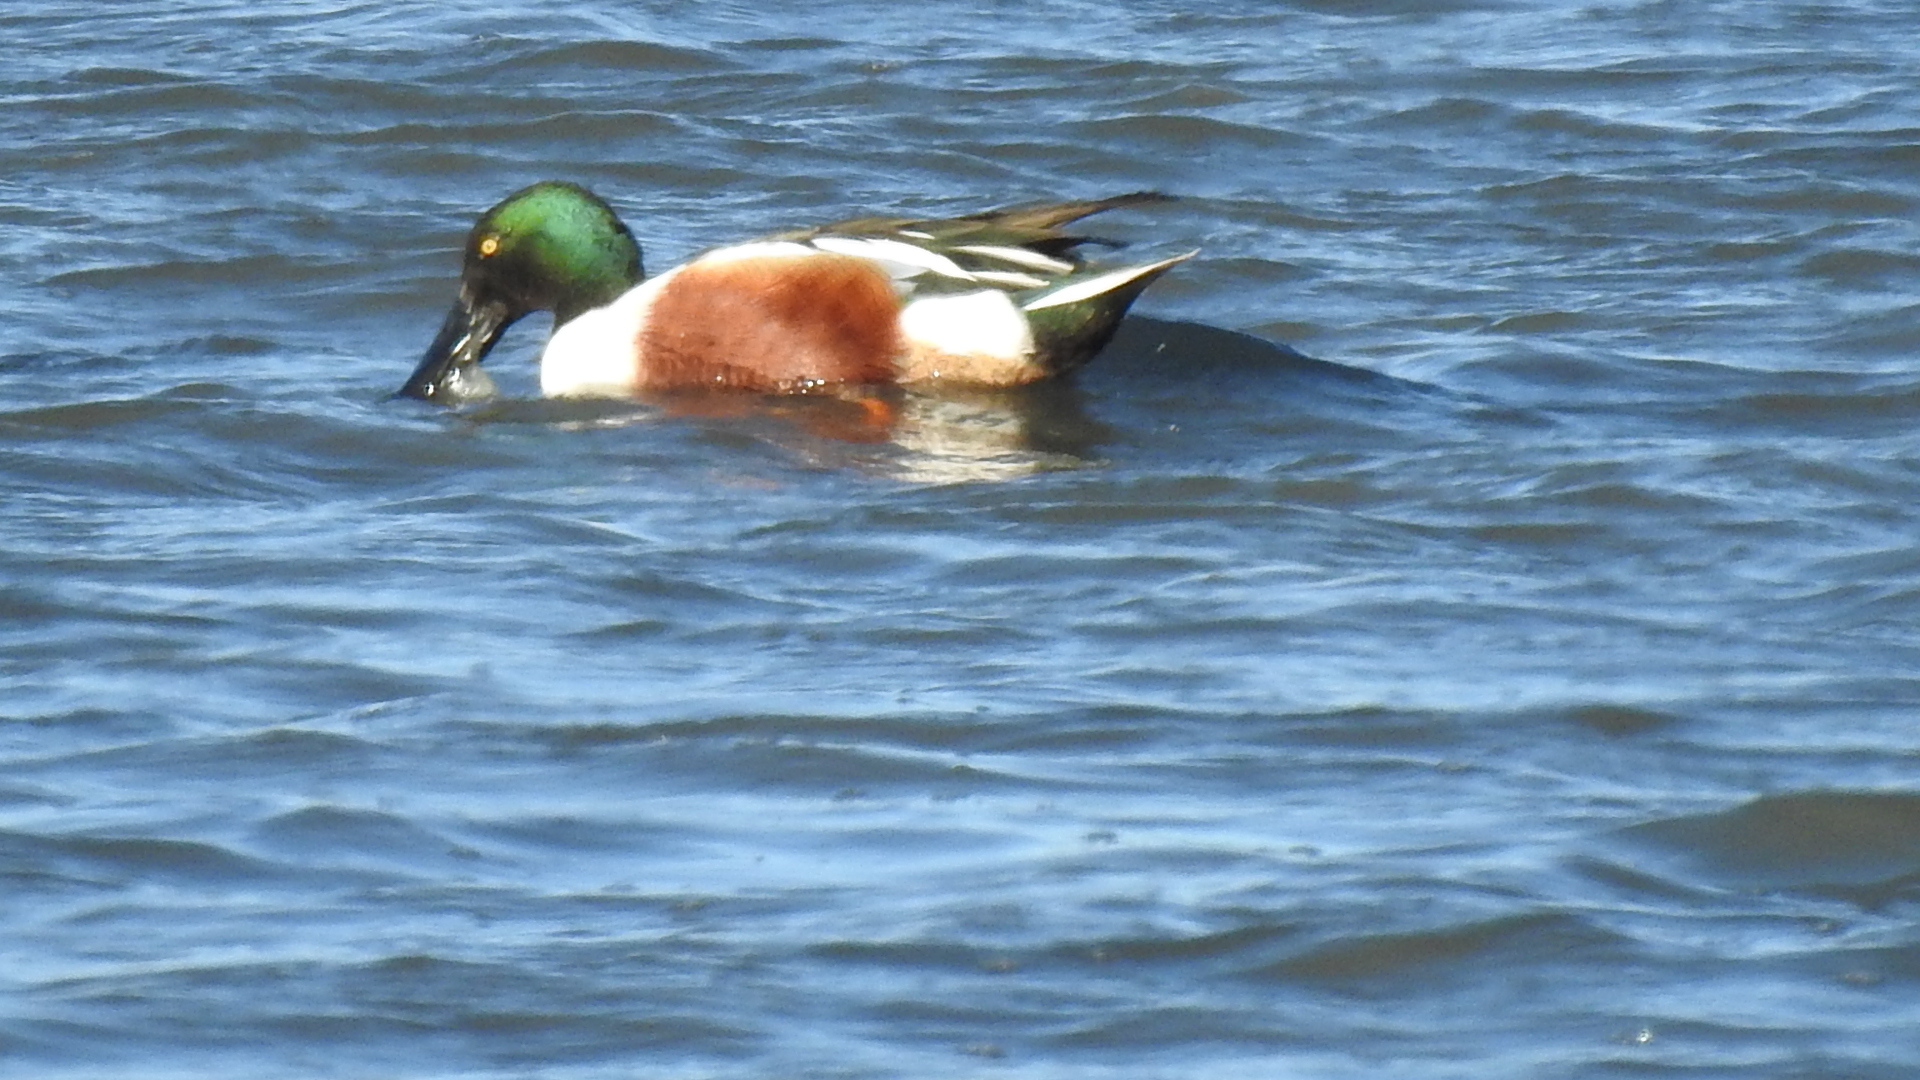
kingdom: Animalia
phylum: Chordata
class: Aves
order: Anseriformes
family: Anatidae
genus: Spatula
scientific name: Spatula clypeata
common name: Northern shoveler
